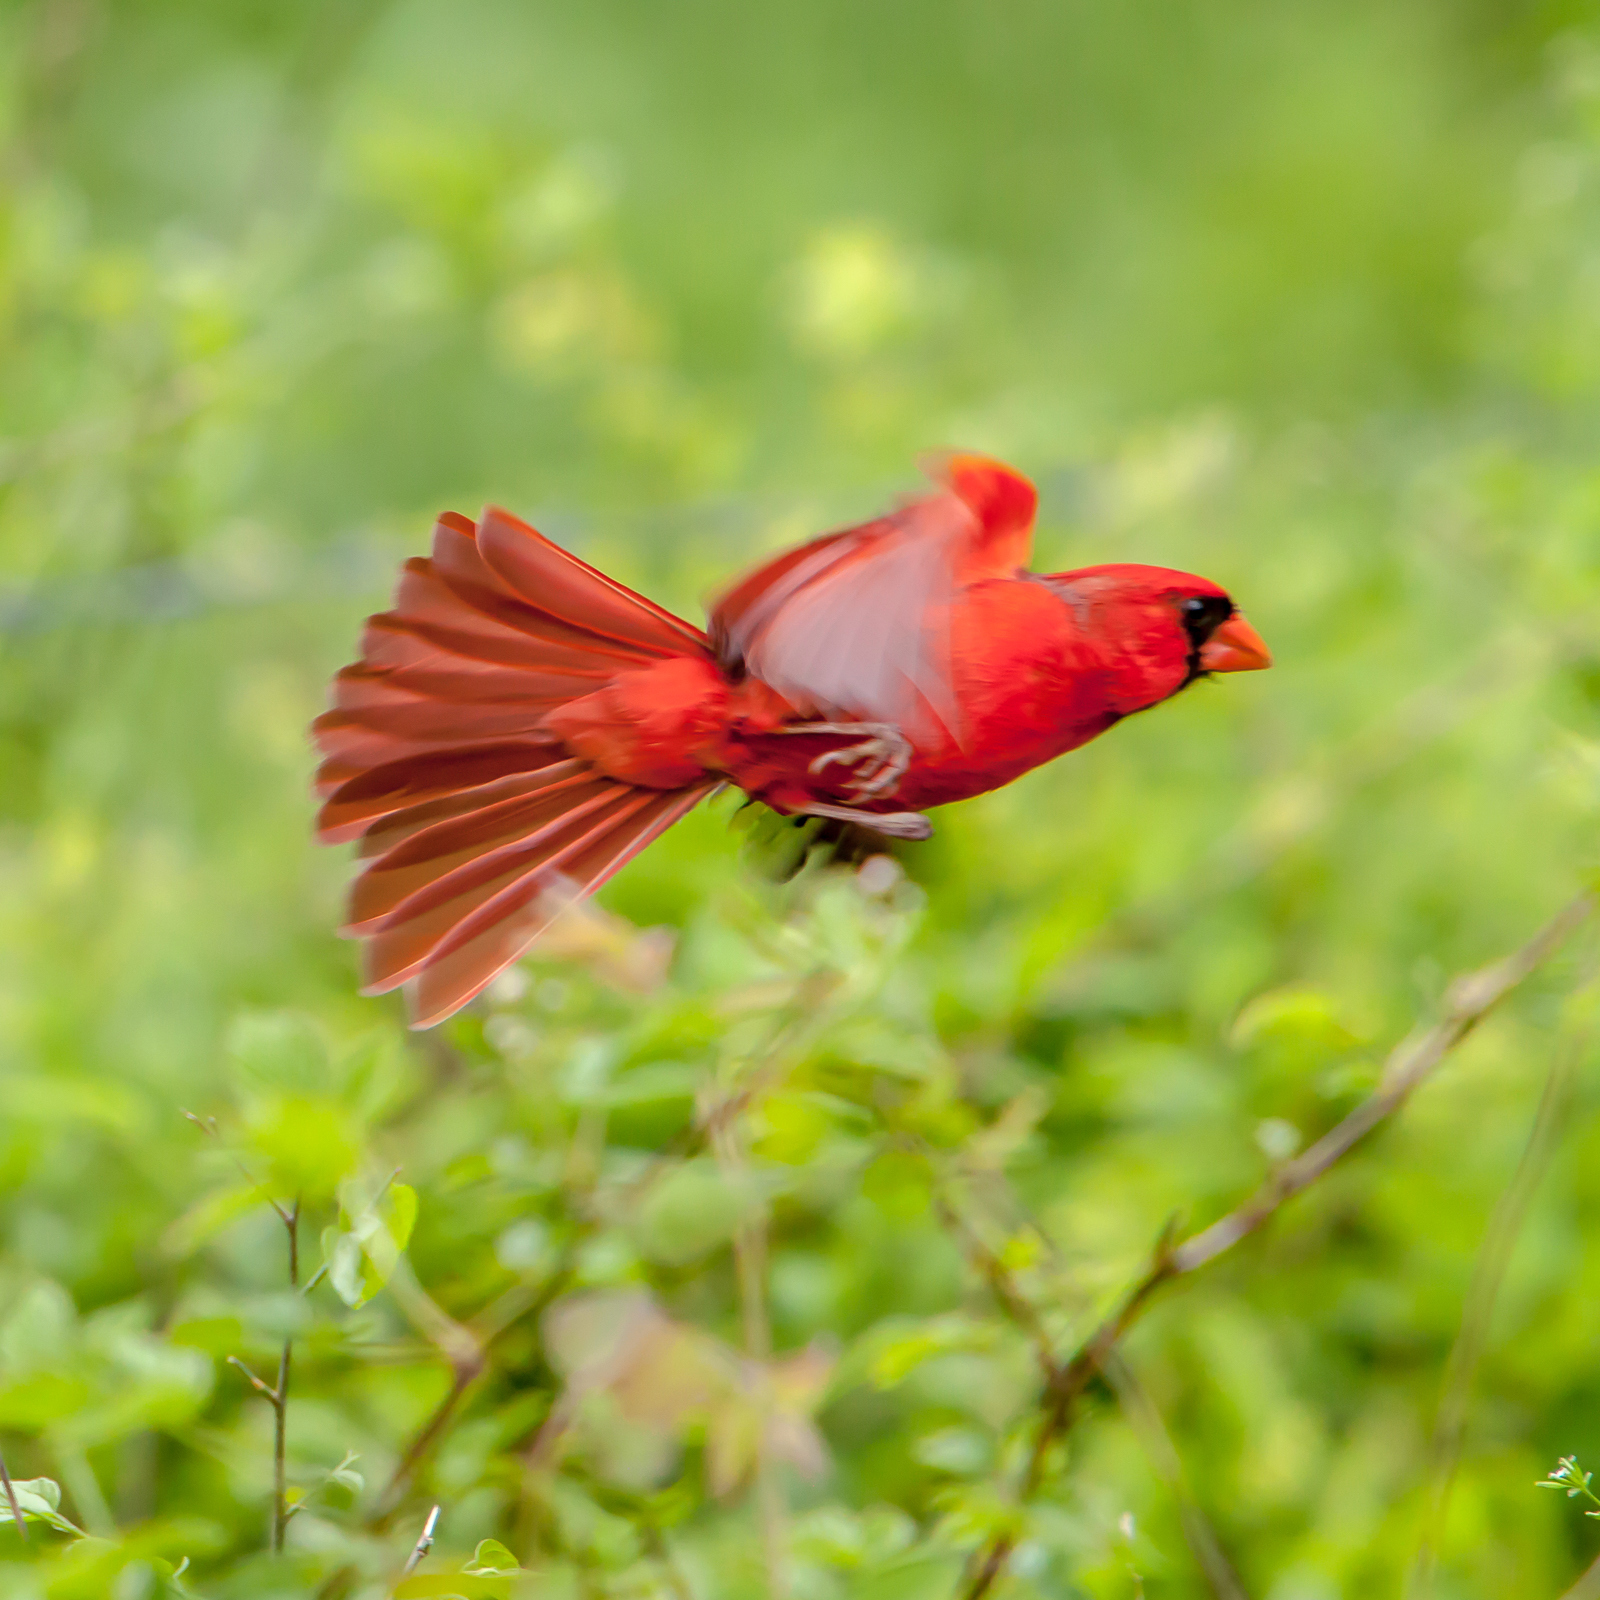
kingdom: Animalia
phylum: Chordata
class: Aves
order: Passeriformes
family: Cardinalidae
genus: Cardinalis
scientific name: Cardinalis cardinalis
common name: Northern cardinal
